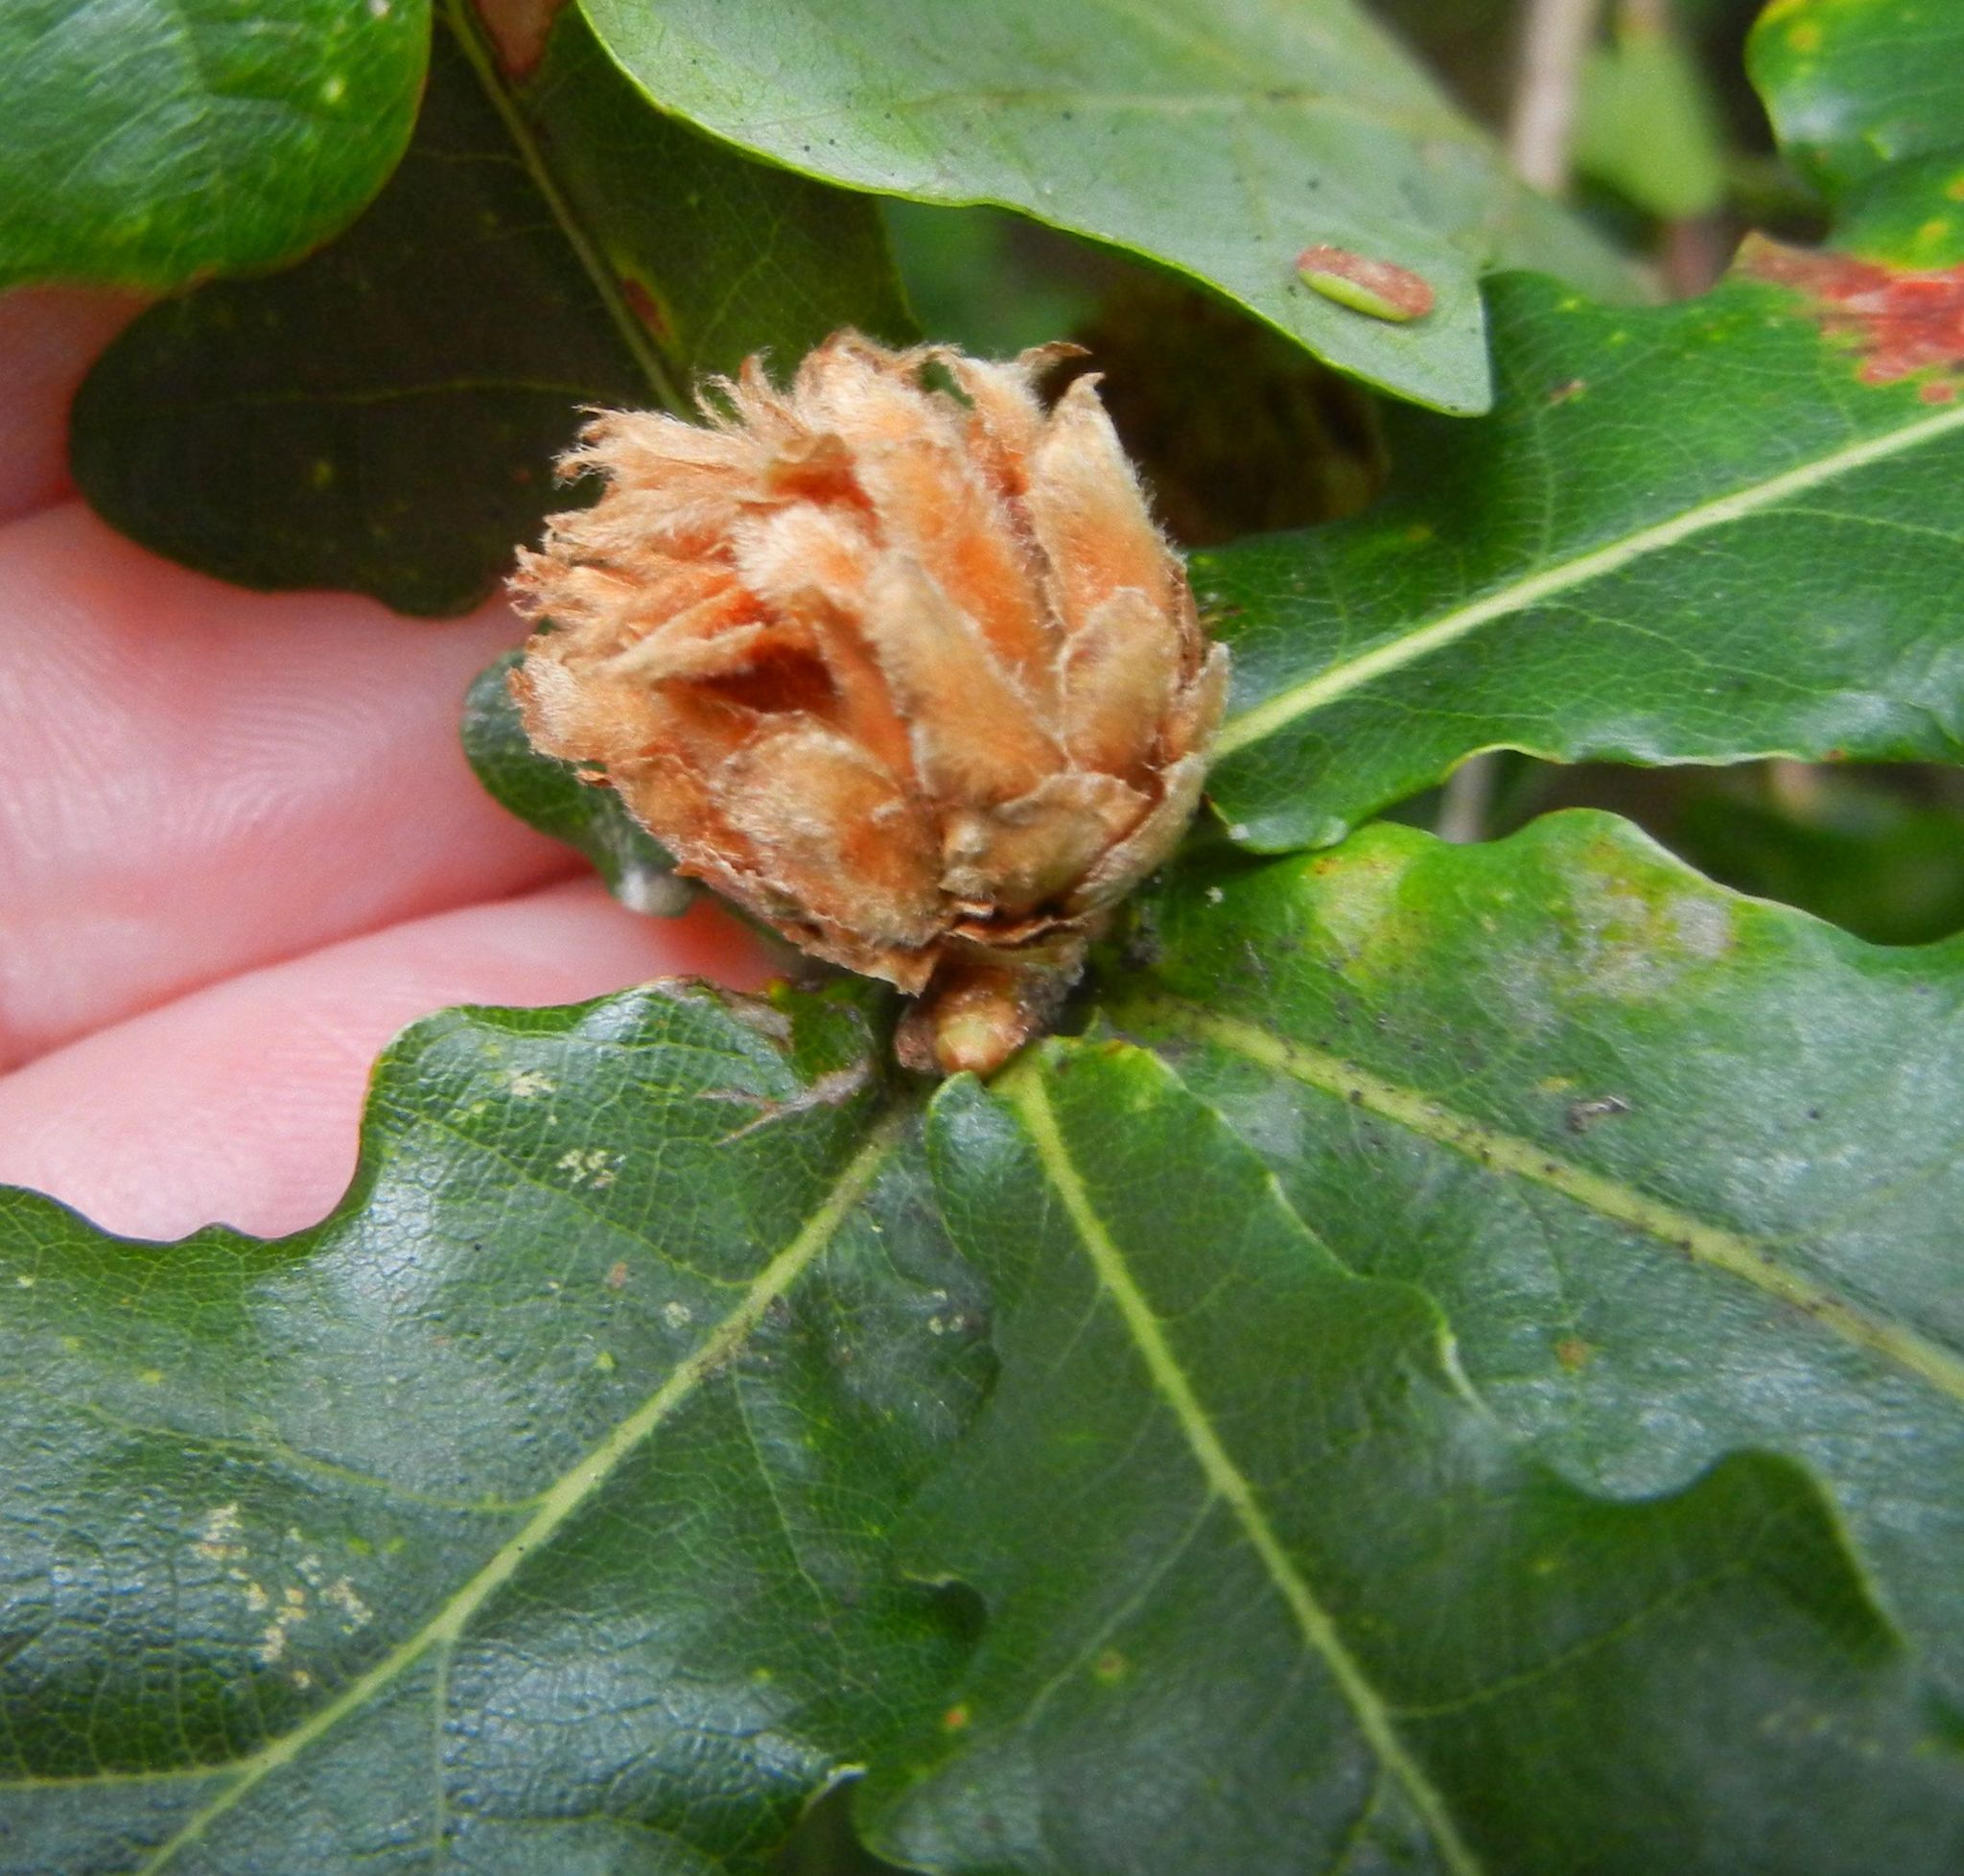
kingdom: Animalia
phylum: Arthropoda
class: Insecta
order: Hymenoptera
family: Cynipidae
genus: Andricus
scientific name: Andricus foecundatrix
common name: Artichoke gall
